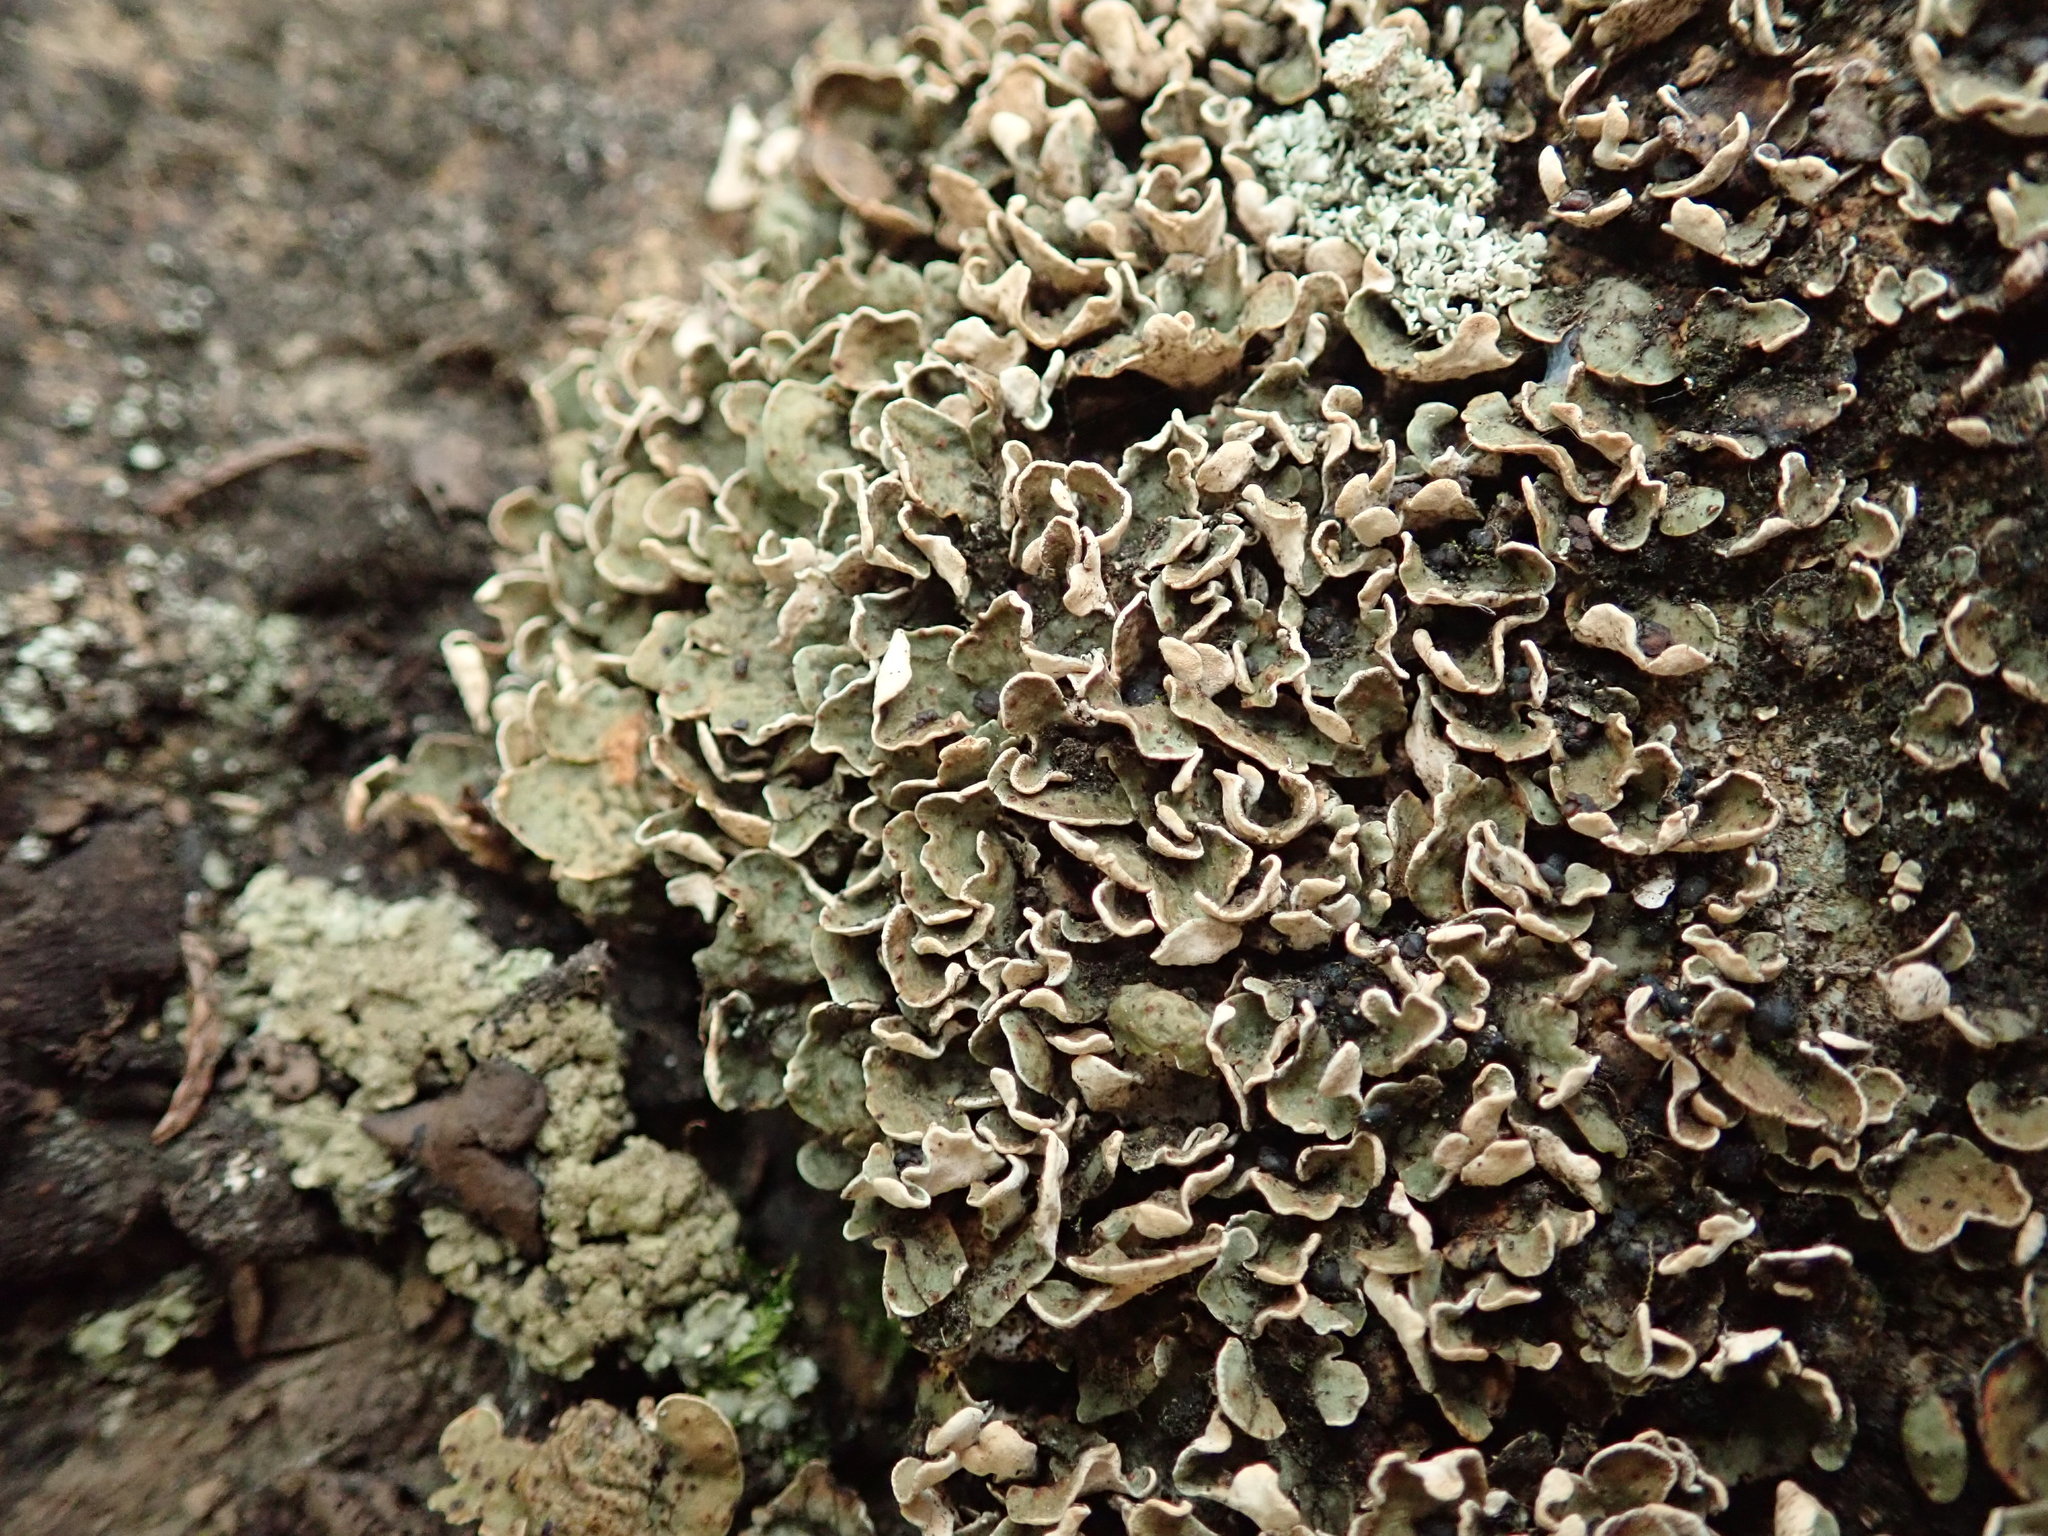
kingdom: Fungi
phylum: Ascomycota
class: Lecanoromycetes
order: Lecanorales
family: Psoraceae
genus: Psora
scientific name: Psora nipponica
